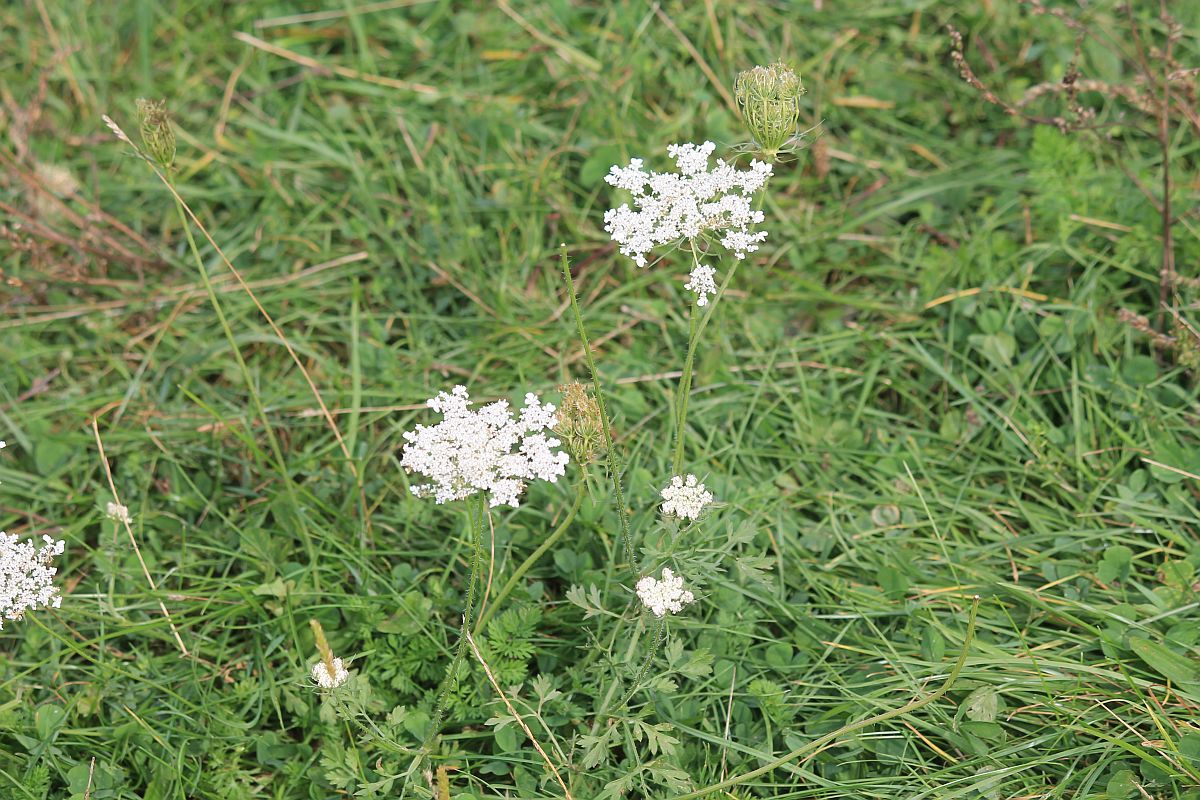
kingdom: Plantae
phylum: Tracheophyta
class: Magnoliopsida
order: Apiales
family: Apiaceae
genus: Daucus
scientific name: Daucus carota
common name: Wild carrot
